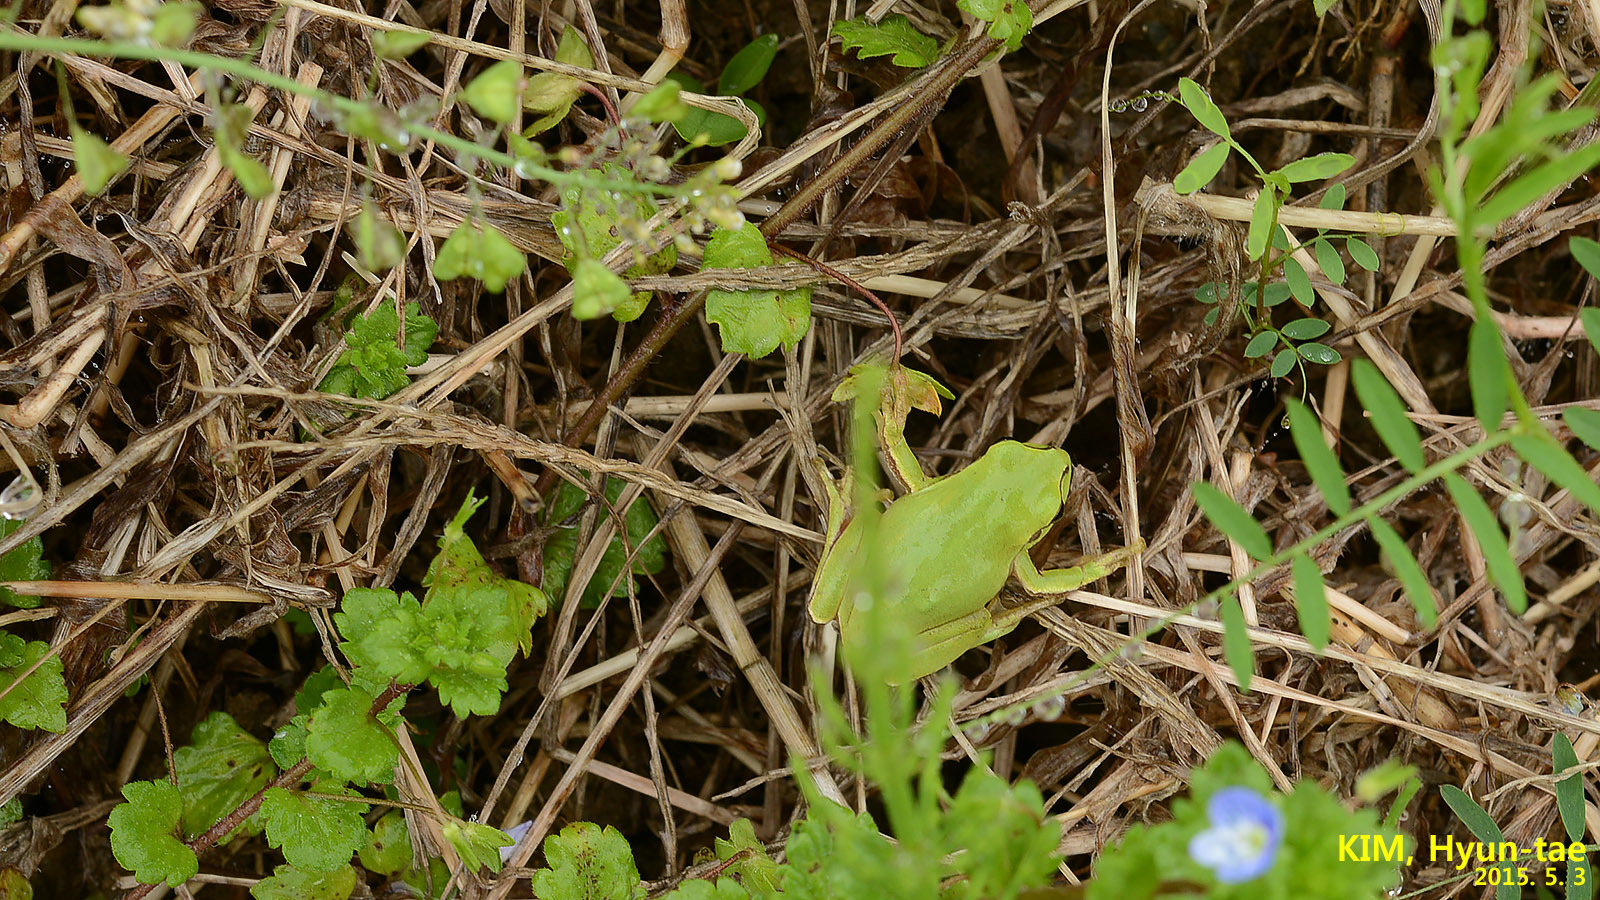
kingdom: Animalia
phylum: Chordata
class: Amphibia
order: Anura
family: Hylidae
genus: Dryophytes
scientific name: Dryophytes immaculatus
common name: North china treefrog
